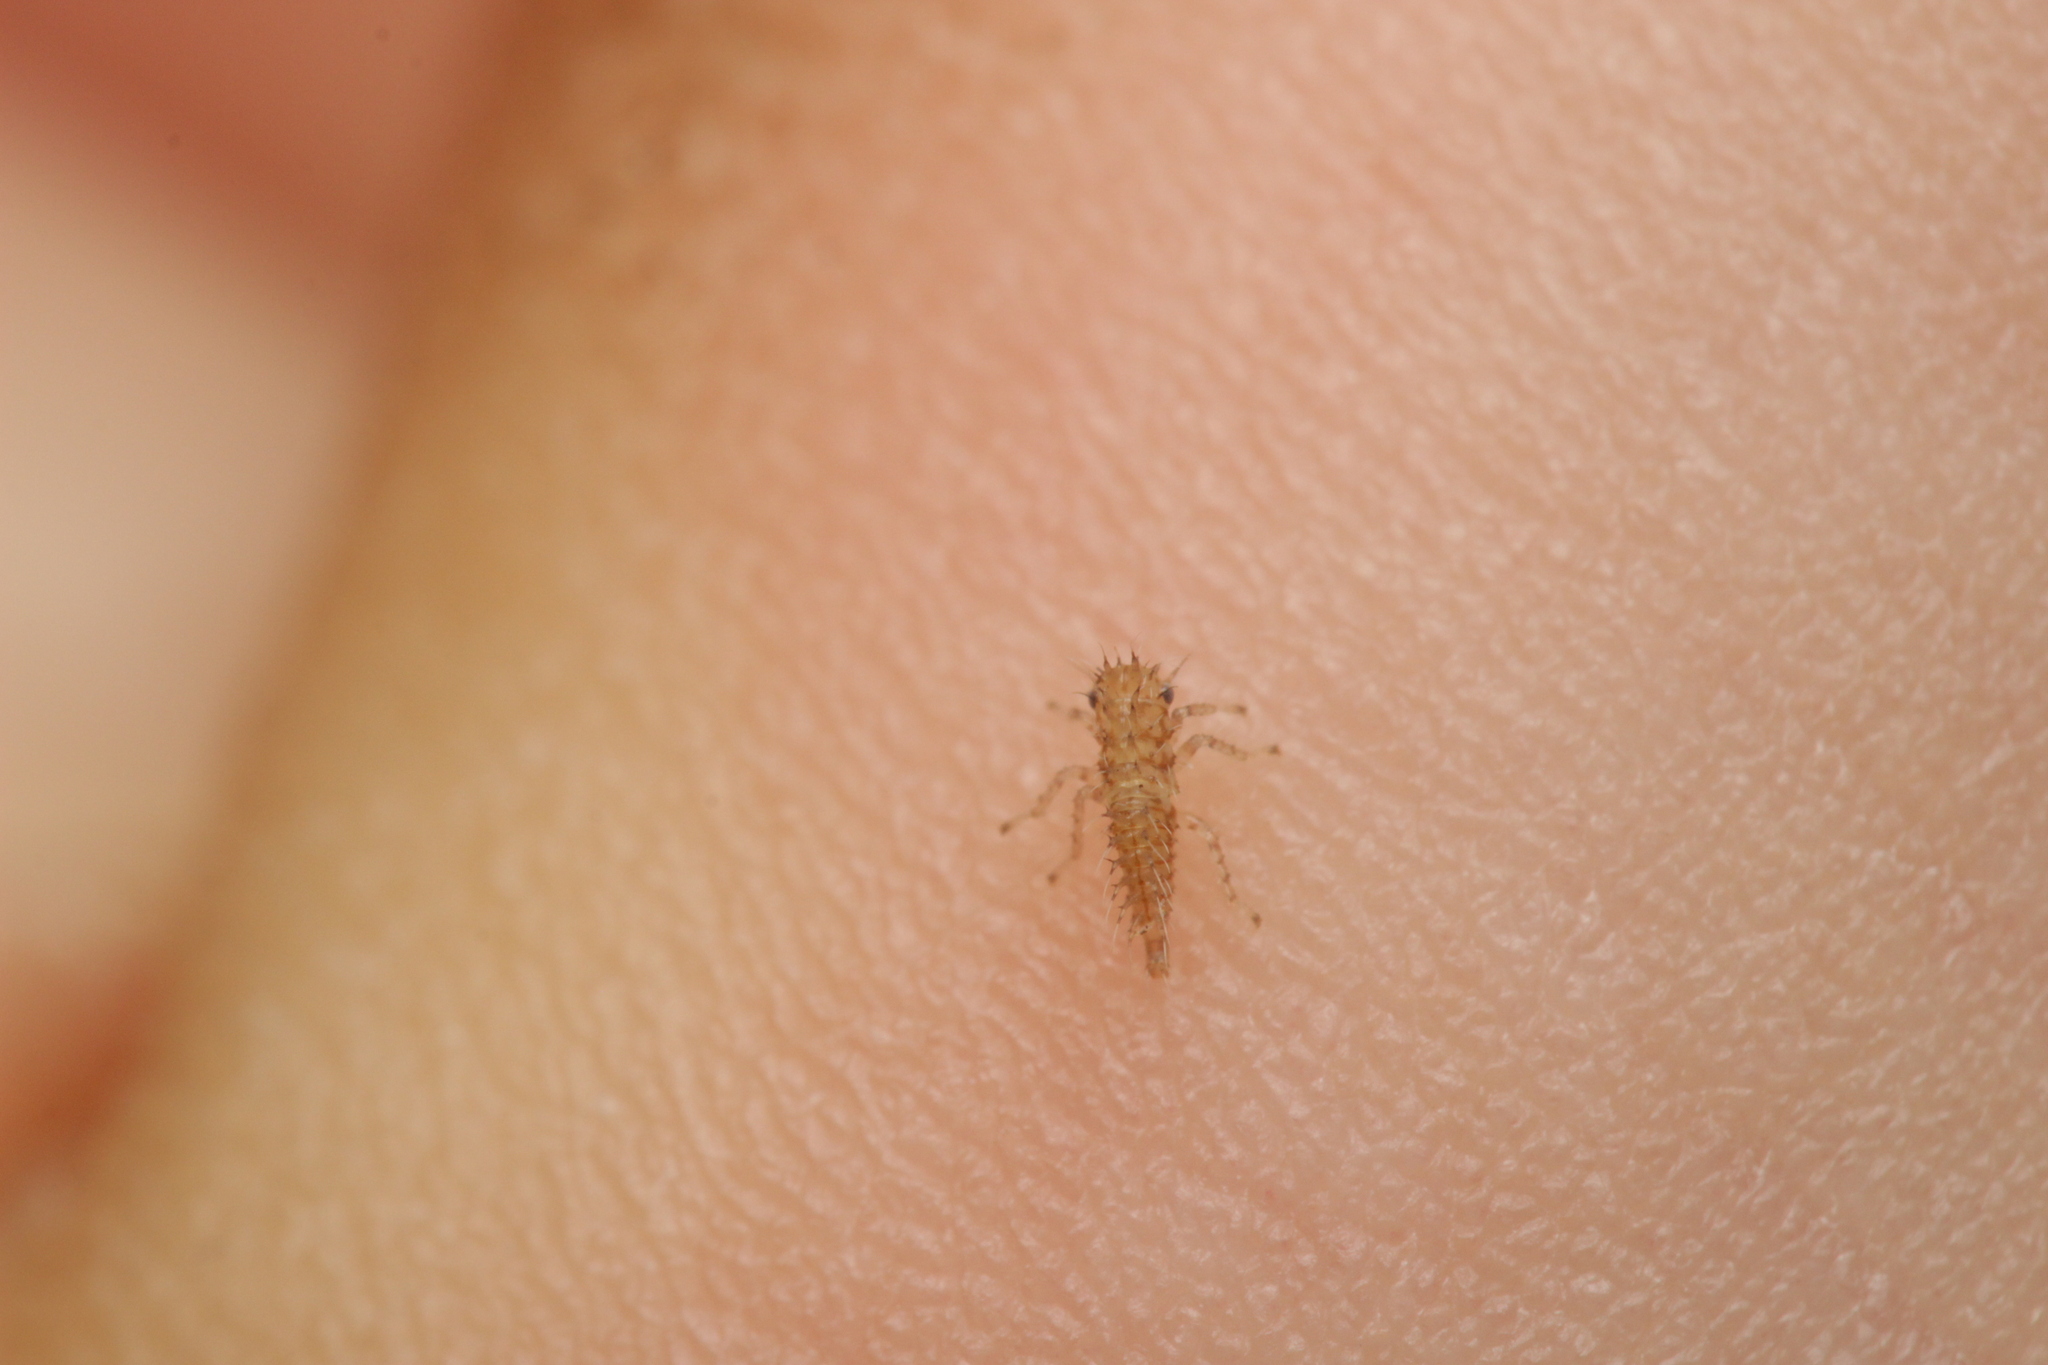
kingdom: Animalia
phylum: Arthropoda
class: Insecta
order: Hemiptera
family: Membracidae
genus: Stictocephala
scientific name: Stictocephala bisonia
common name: American buffalo treehopper
